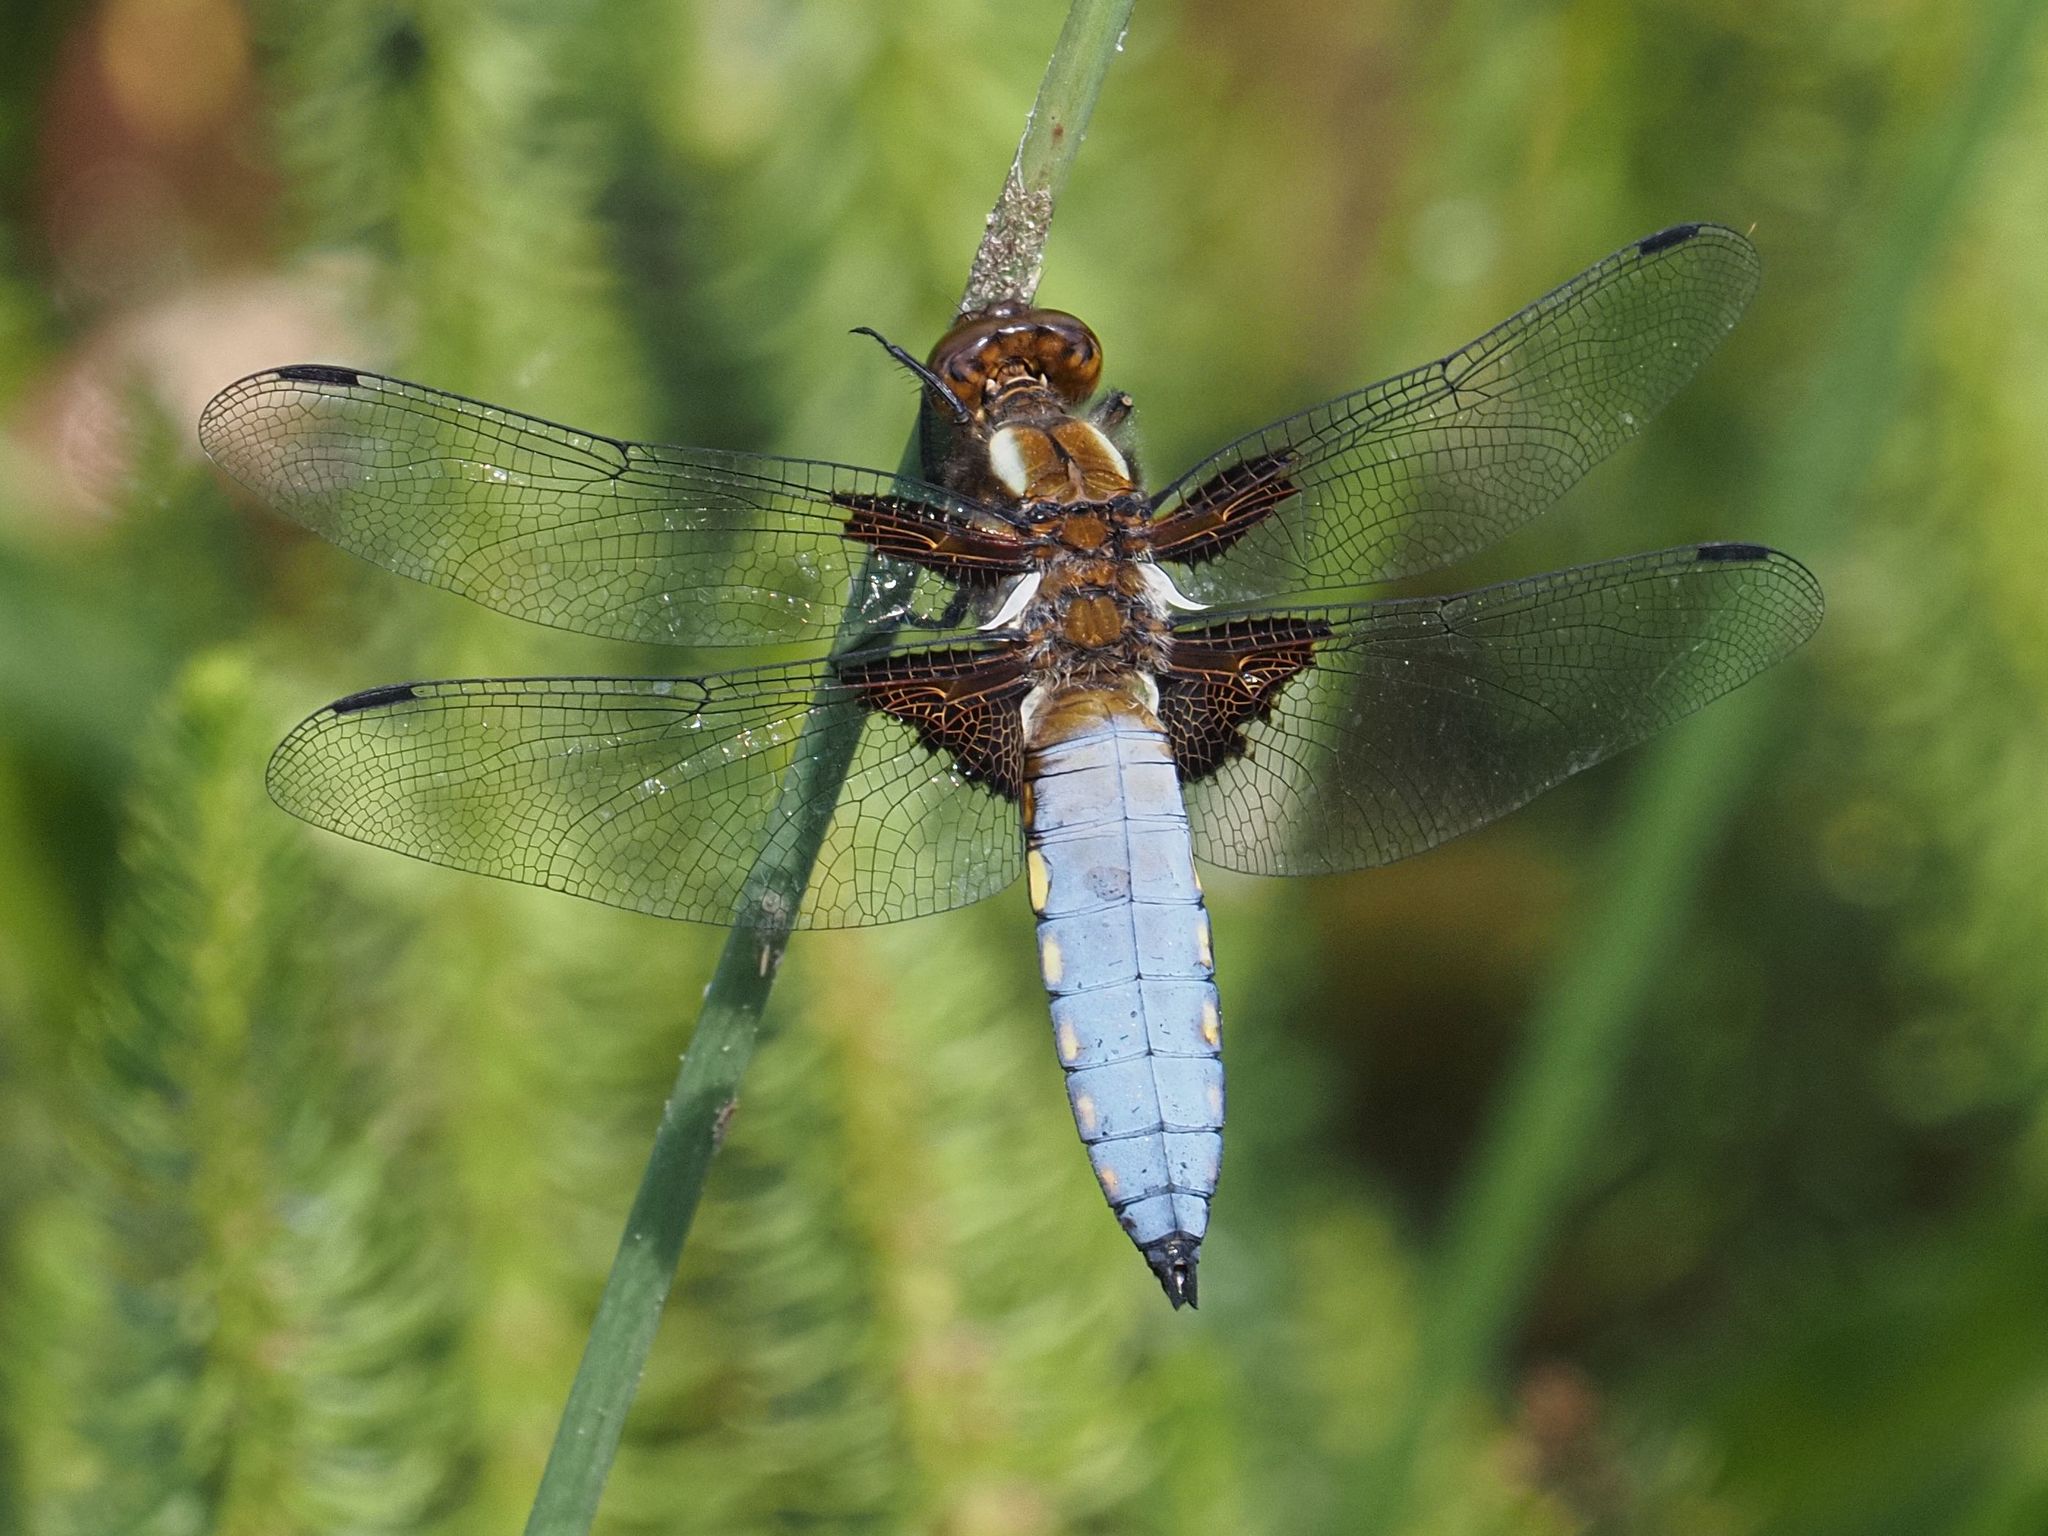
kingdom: Animalia
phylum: Arthropoda
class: Insecta
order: Odonata
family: Libellulidae
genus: Libellula
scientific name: Libellula depressa
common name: Broad-bodied chaser
